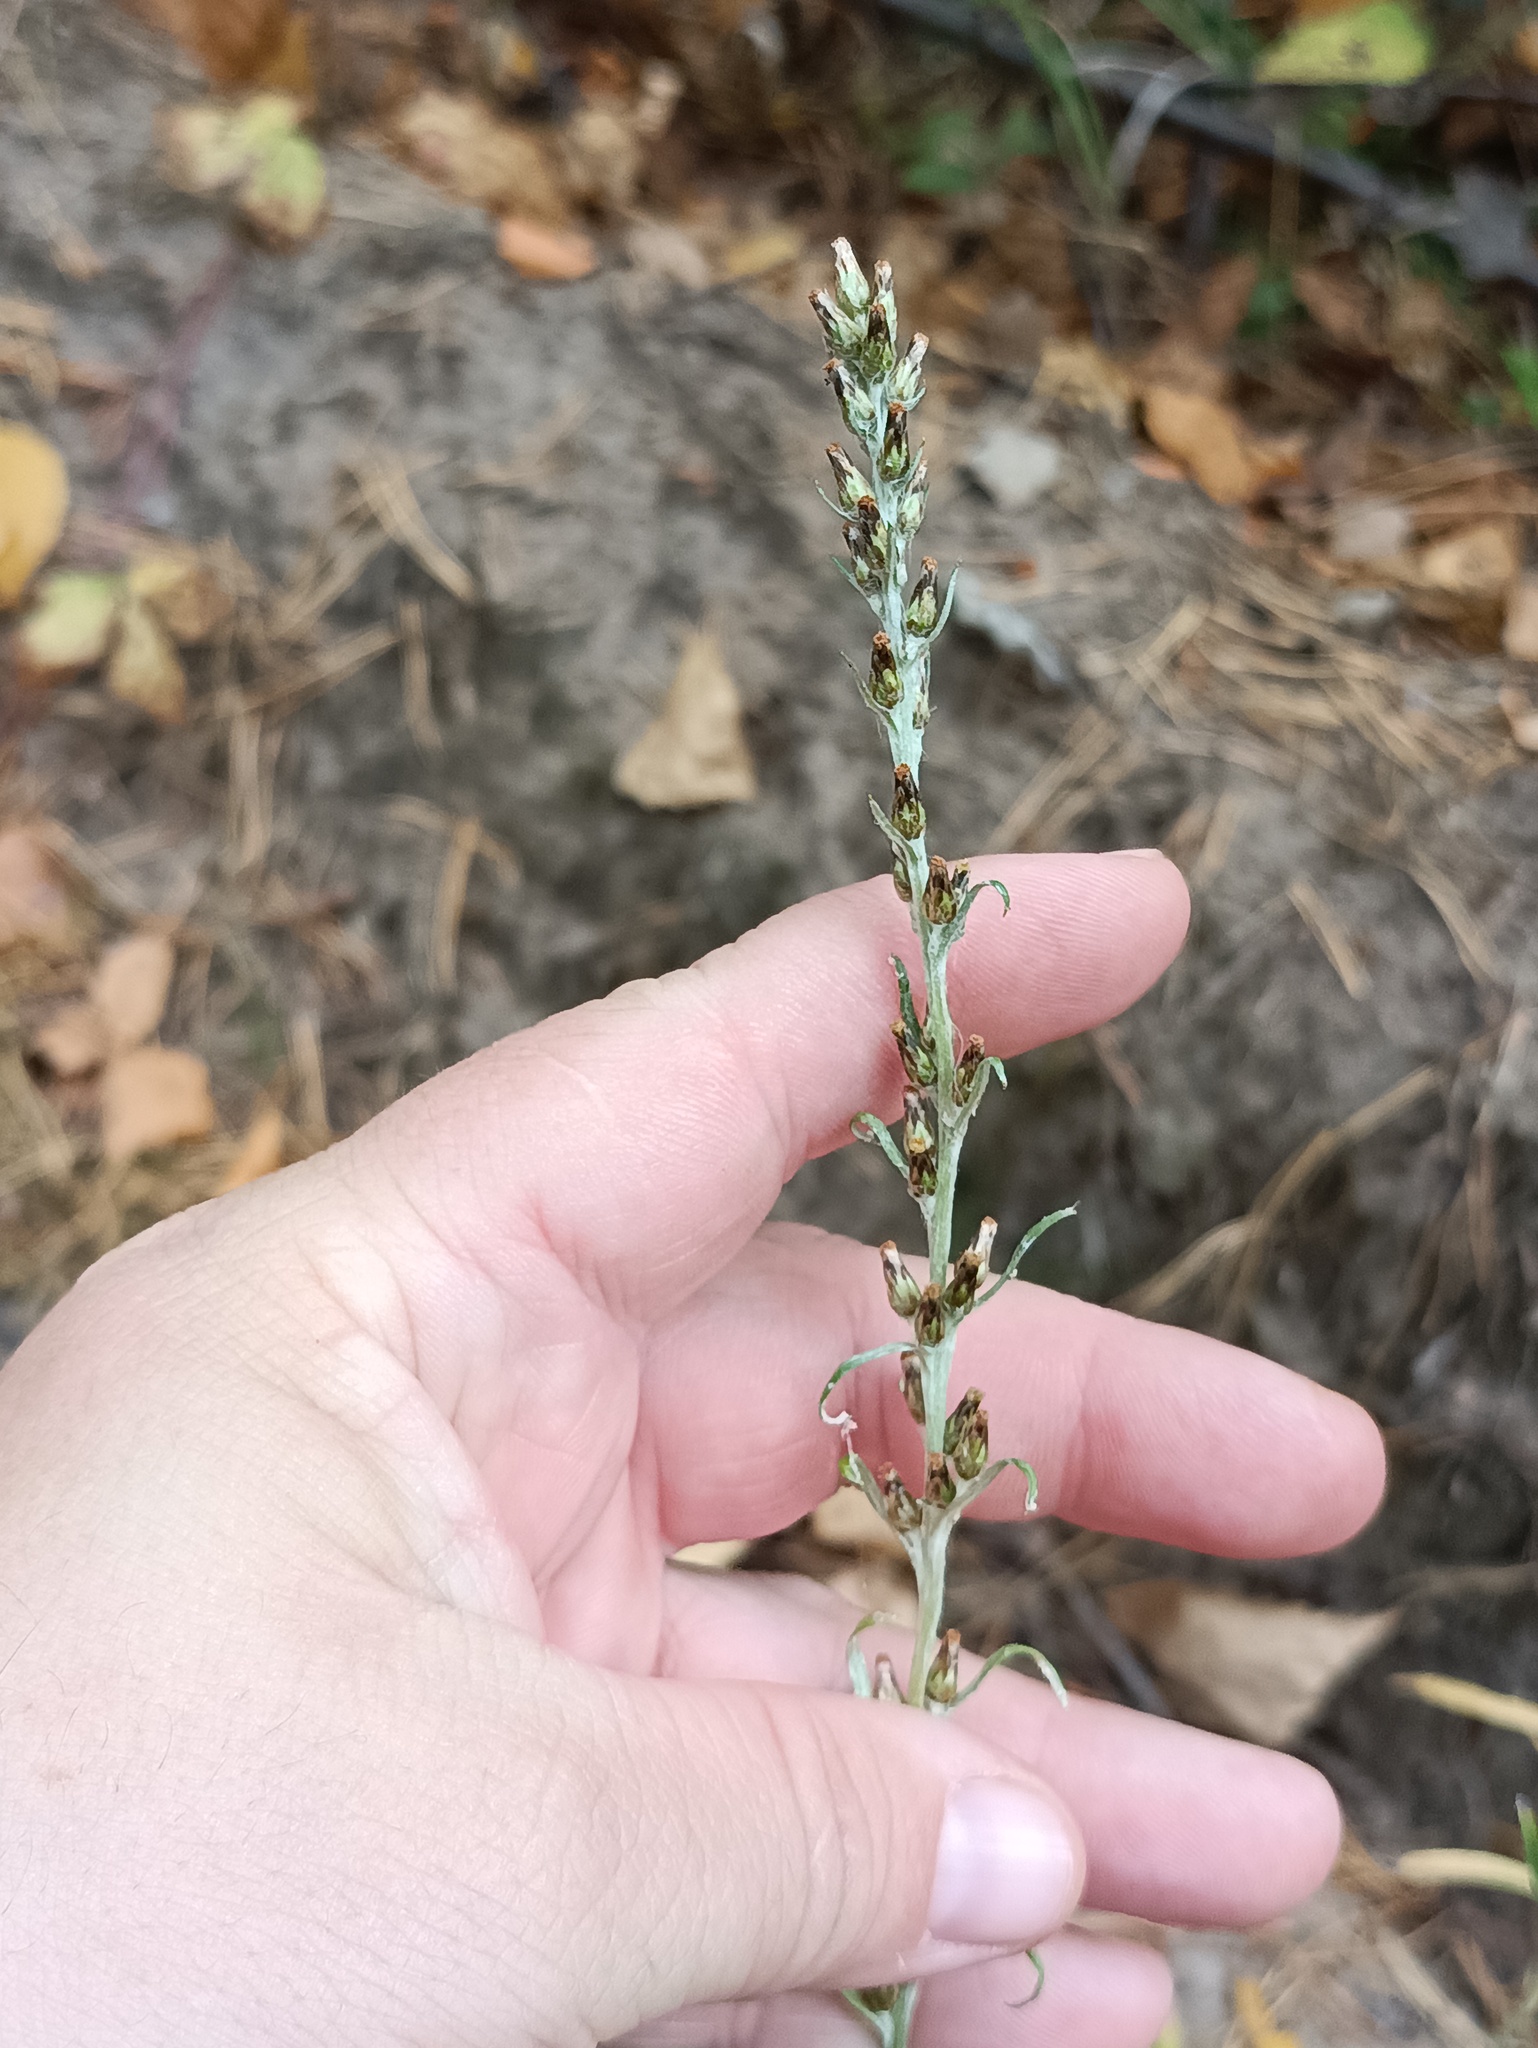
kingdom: Plantae
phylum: Tracheophyta
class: Magnoliopsida
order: Asterales
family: Asteraceae
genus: Omalotheca
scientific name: Omalotheca sylvatica
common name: Heath cudweed
